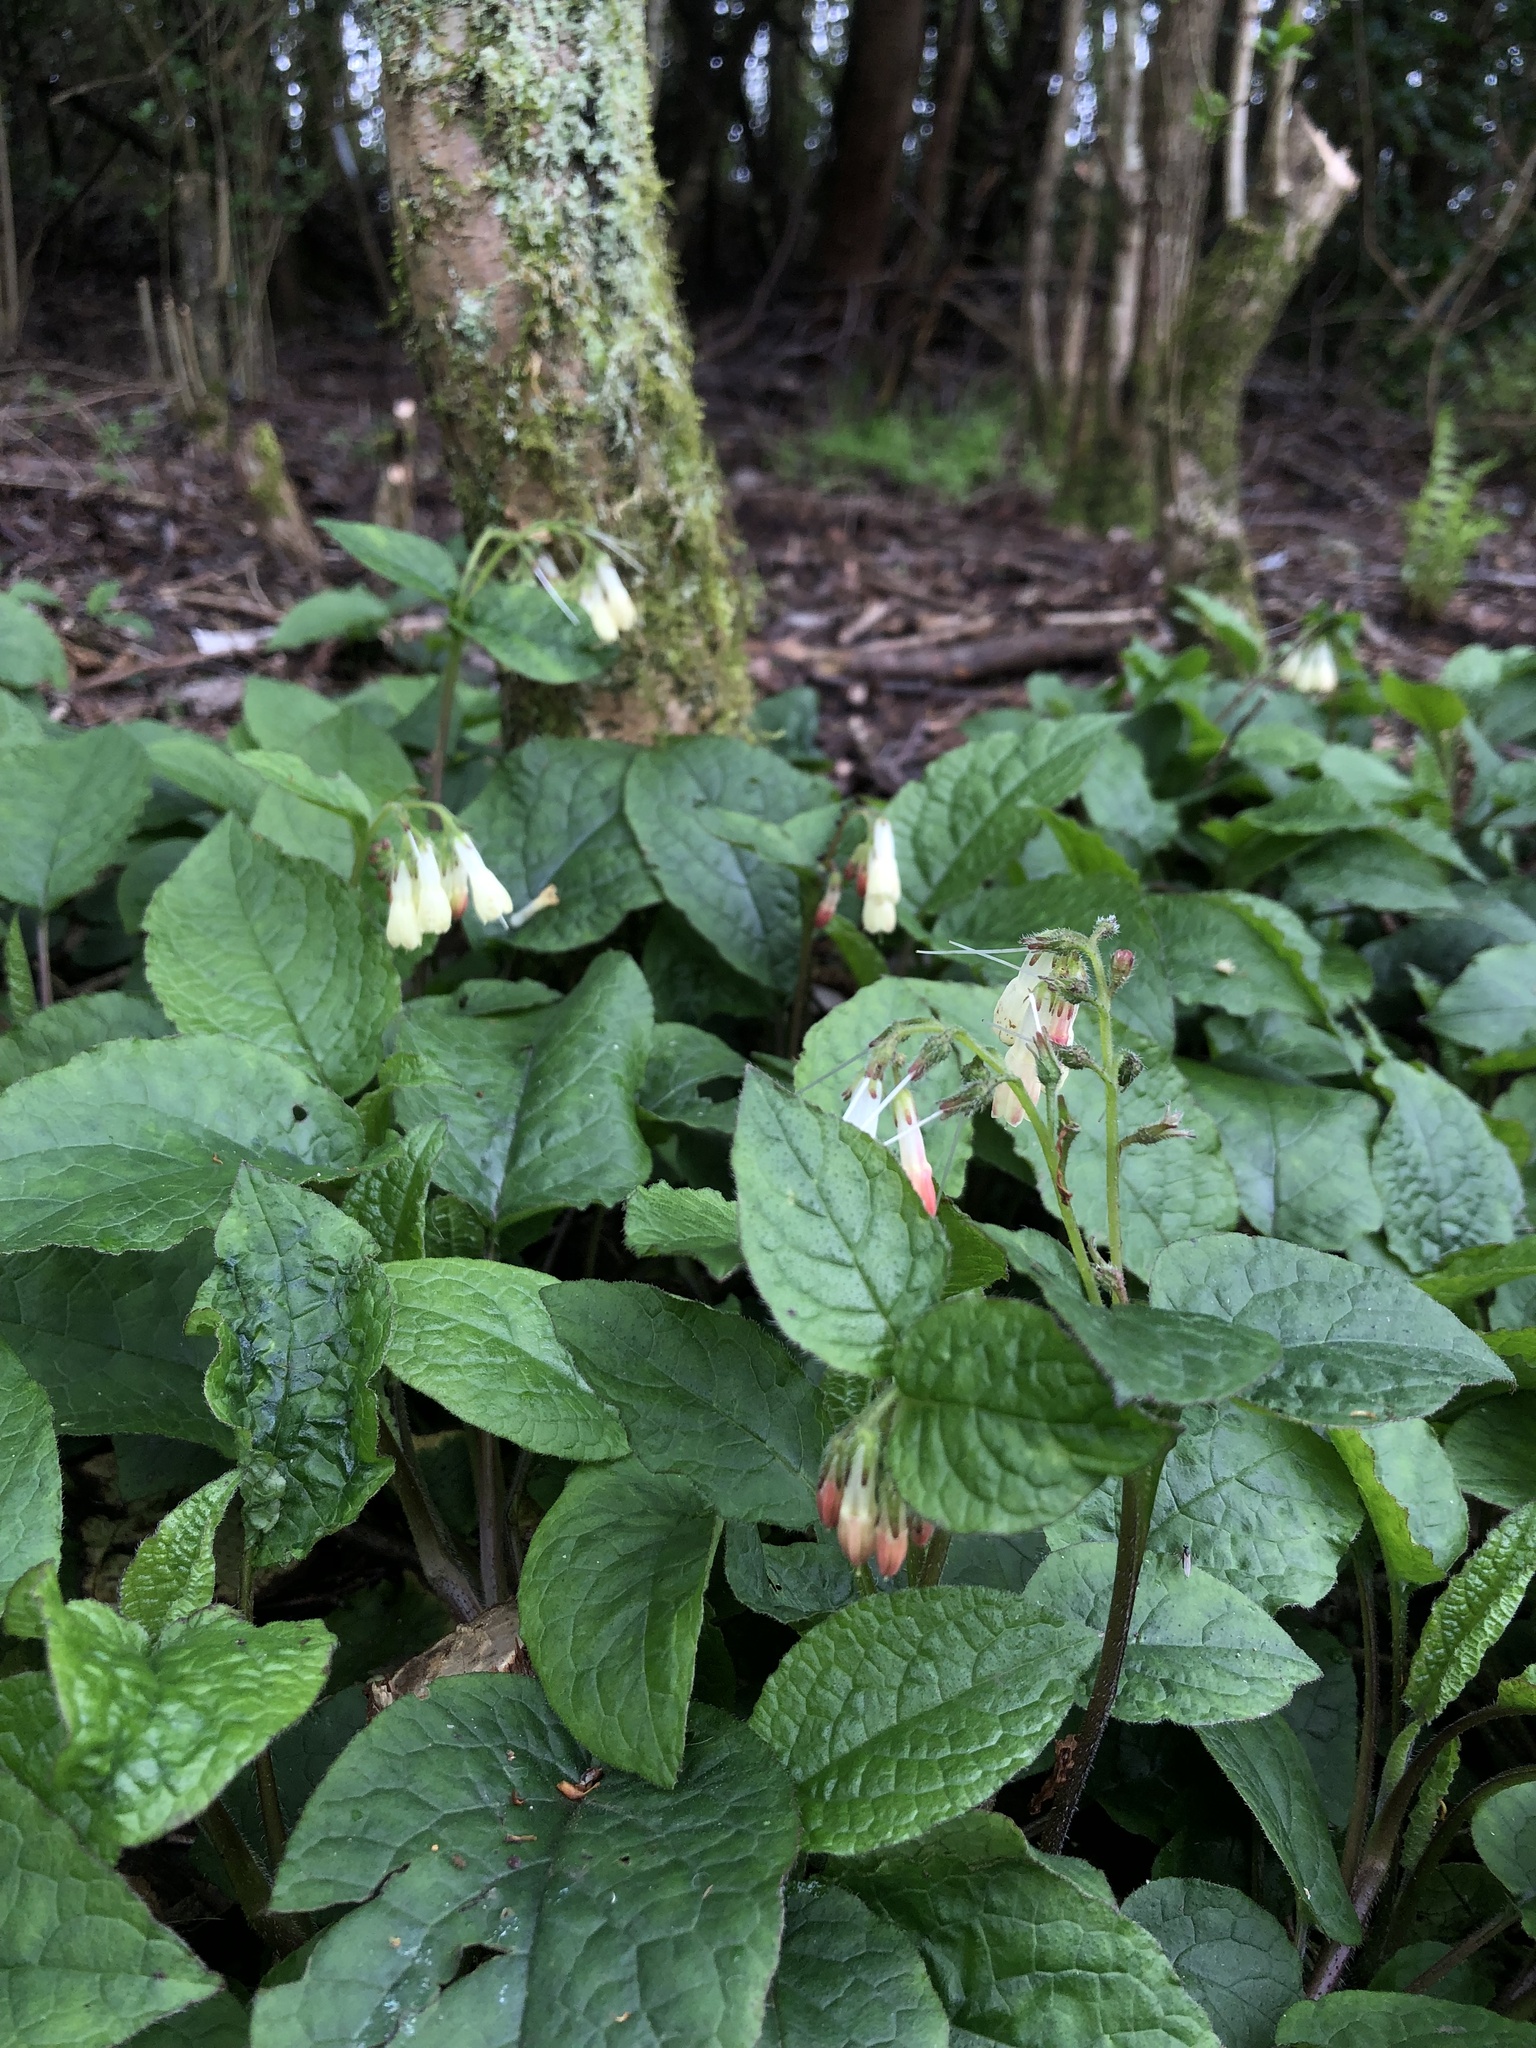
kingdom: Plantae
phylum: Tracheophyta
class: Magnoliopsida
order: Boraginales
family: Boraginaceae
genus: Symphytum
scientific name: Symphytum grandiflorum
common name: Creeping comfrey
